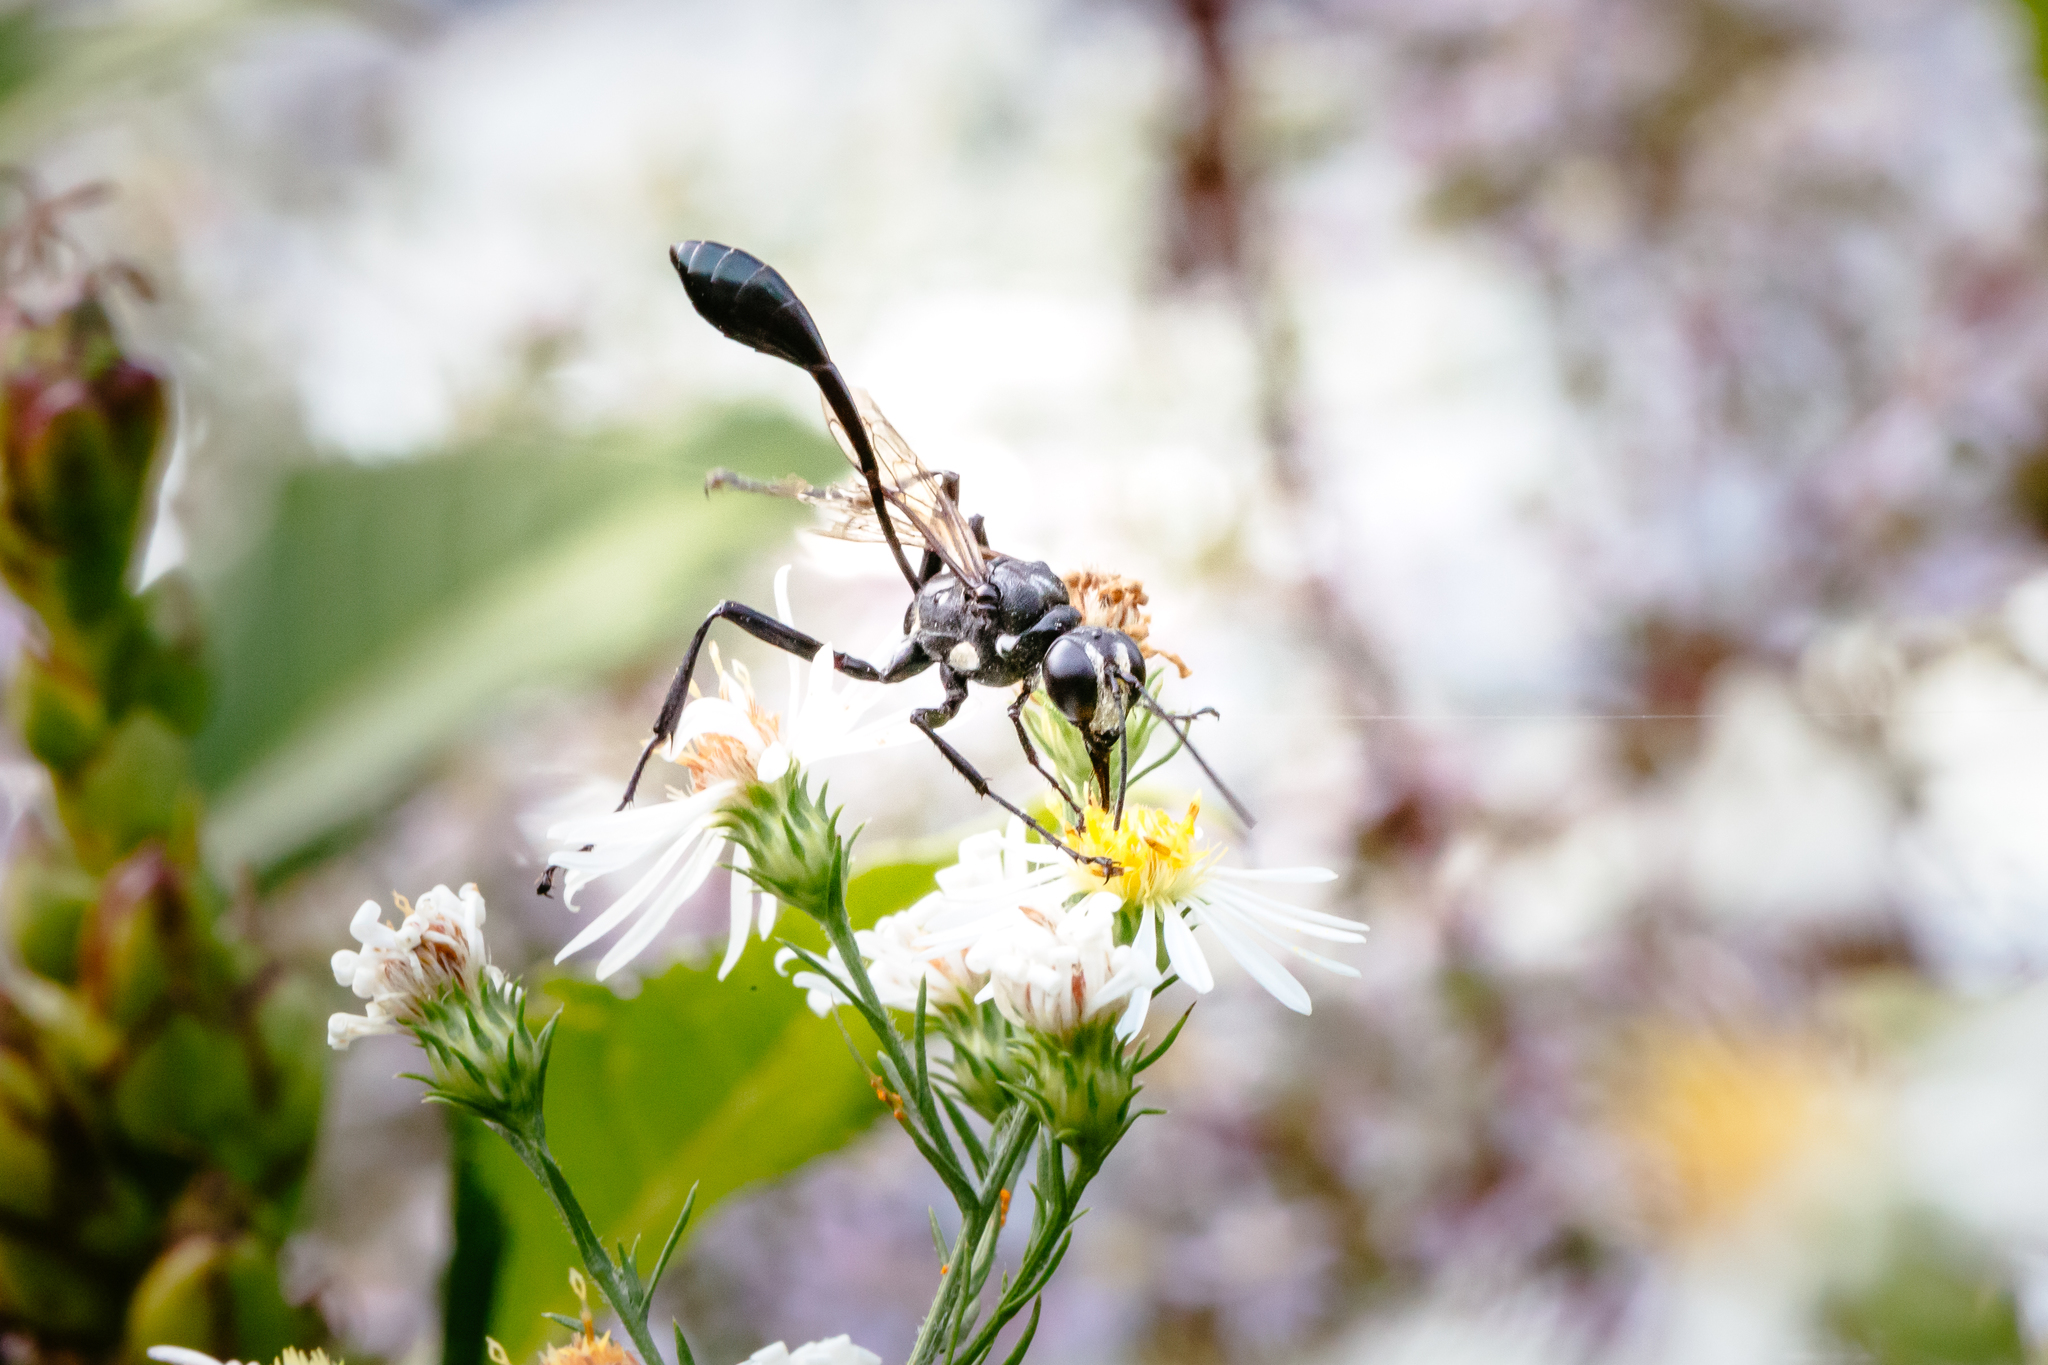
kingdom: Animalia
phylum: Arthropoda
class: Insecta
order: Hymenoptera
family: Sphecidae
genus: Eremnophila
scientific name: Eremnophila aureonotata
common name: Gold-marked thread-waisted wasp
